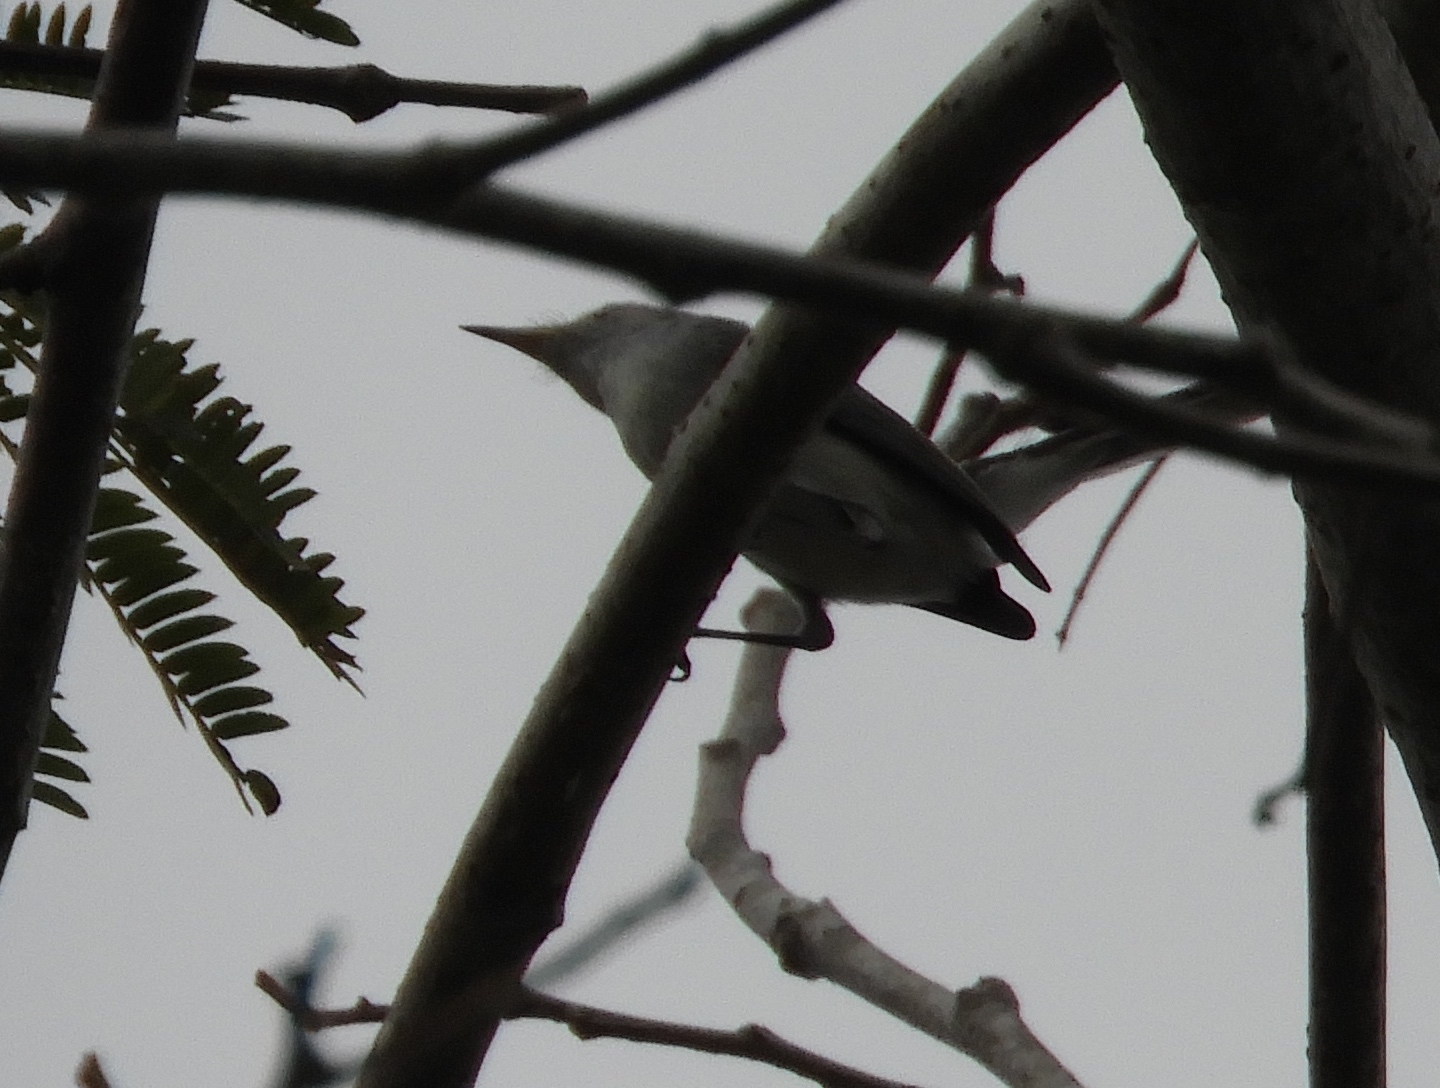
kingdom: Animalia
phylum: Chordata
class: Aves
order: Passeriformes
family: Polioptilidae
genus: Polioptila
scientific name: Polioptila
